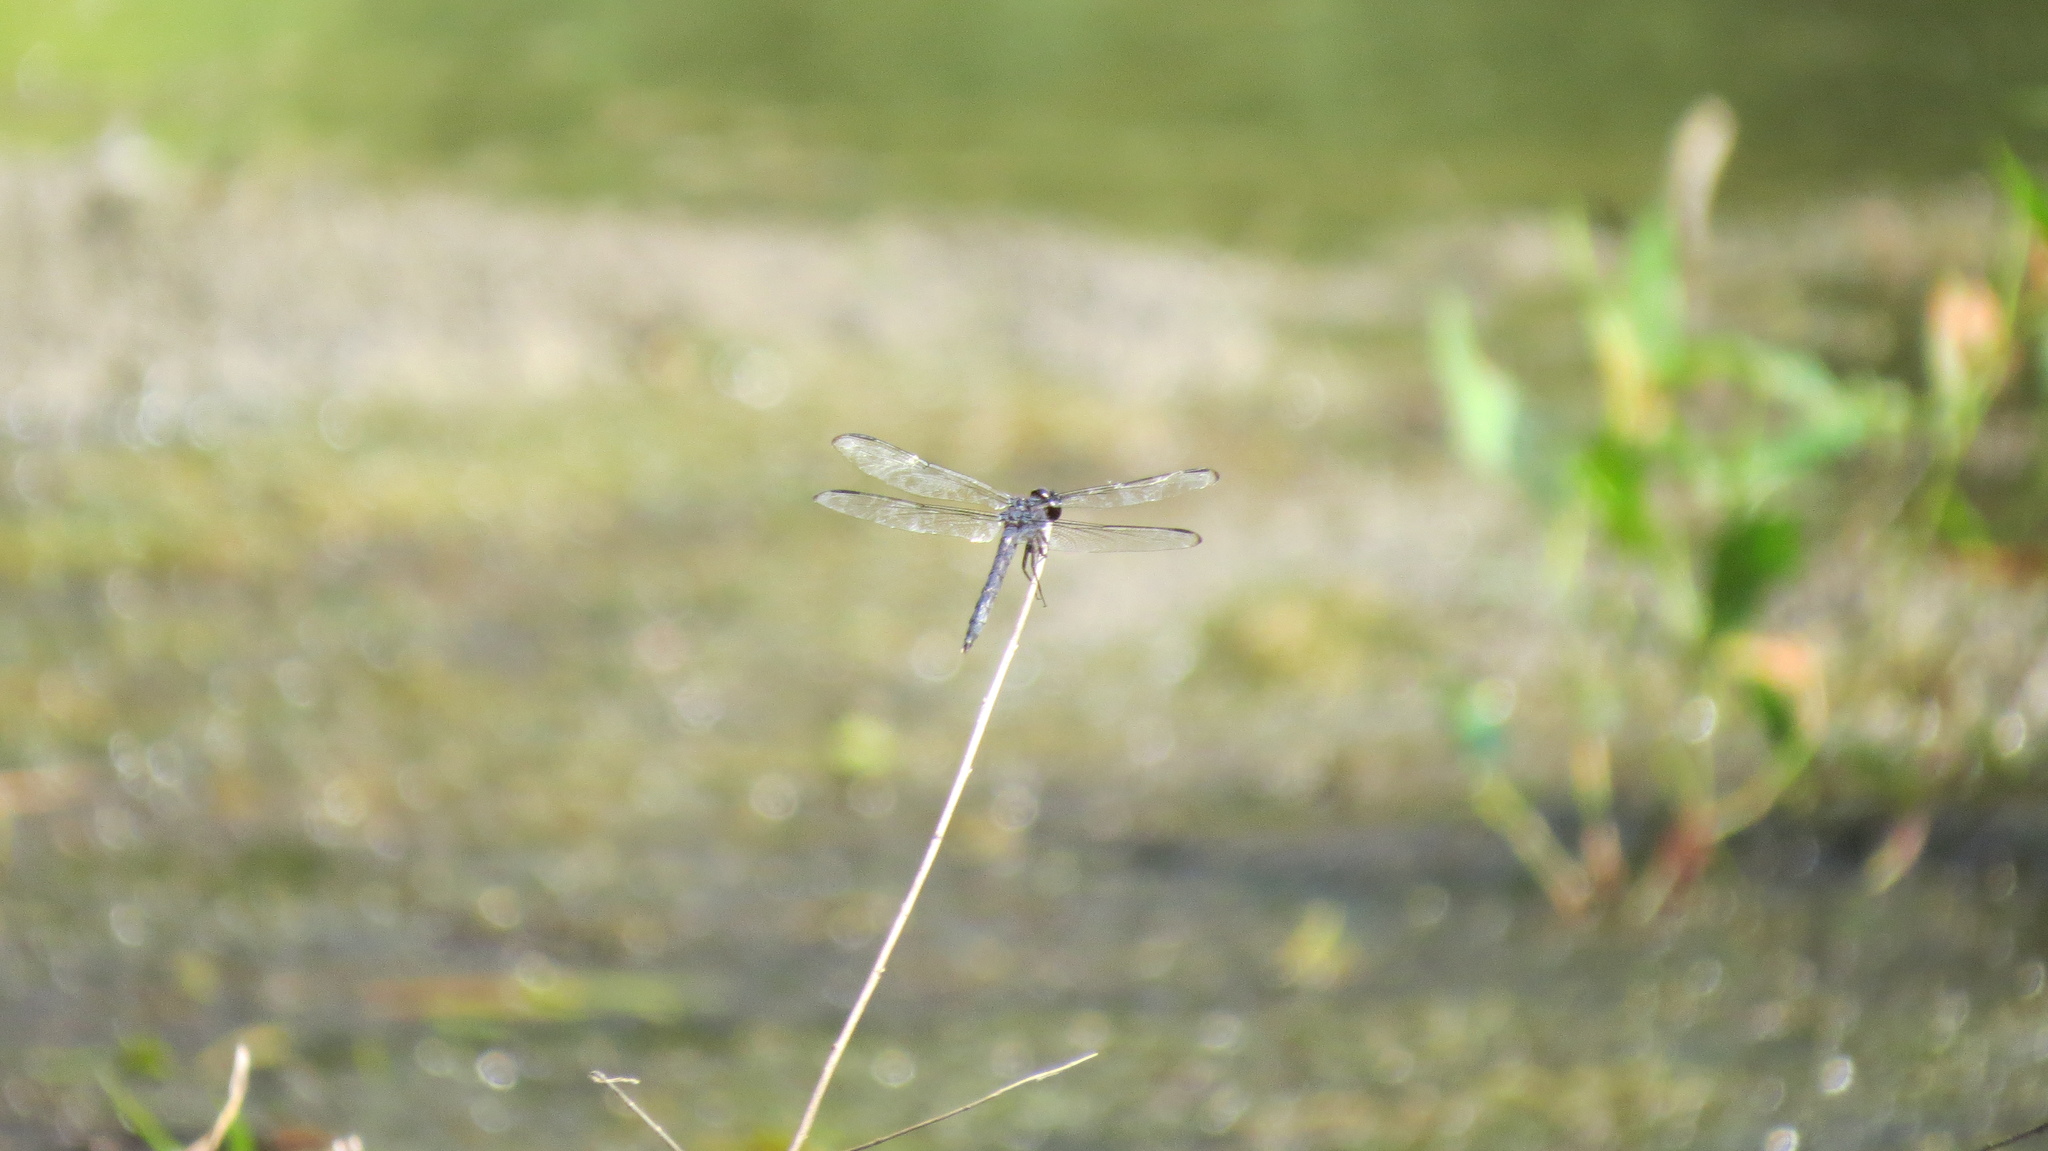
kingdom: Animalia
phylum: Arthropoda
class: Insecta
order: Odonata
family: Libellulidae
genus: Libellula
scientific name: Libellula incesta
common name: Slaty skimmer
